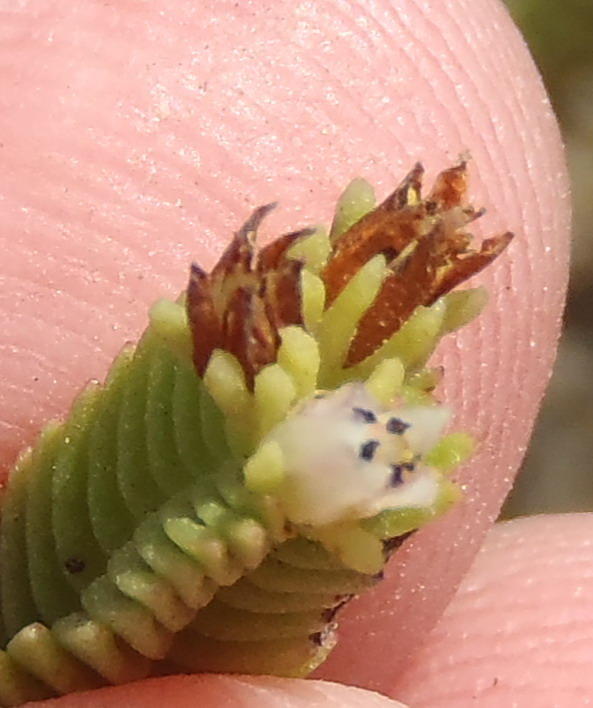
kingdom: Plantae
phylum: Tracheophyta
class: Magnoliopsida
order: Saxifragales
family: Crassulaceae
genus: Crassula
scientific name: Crassula ericoides
